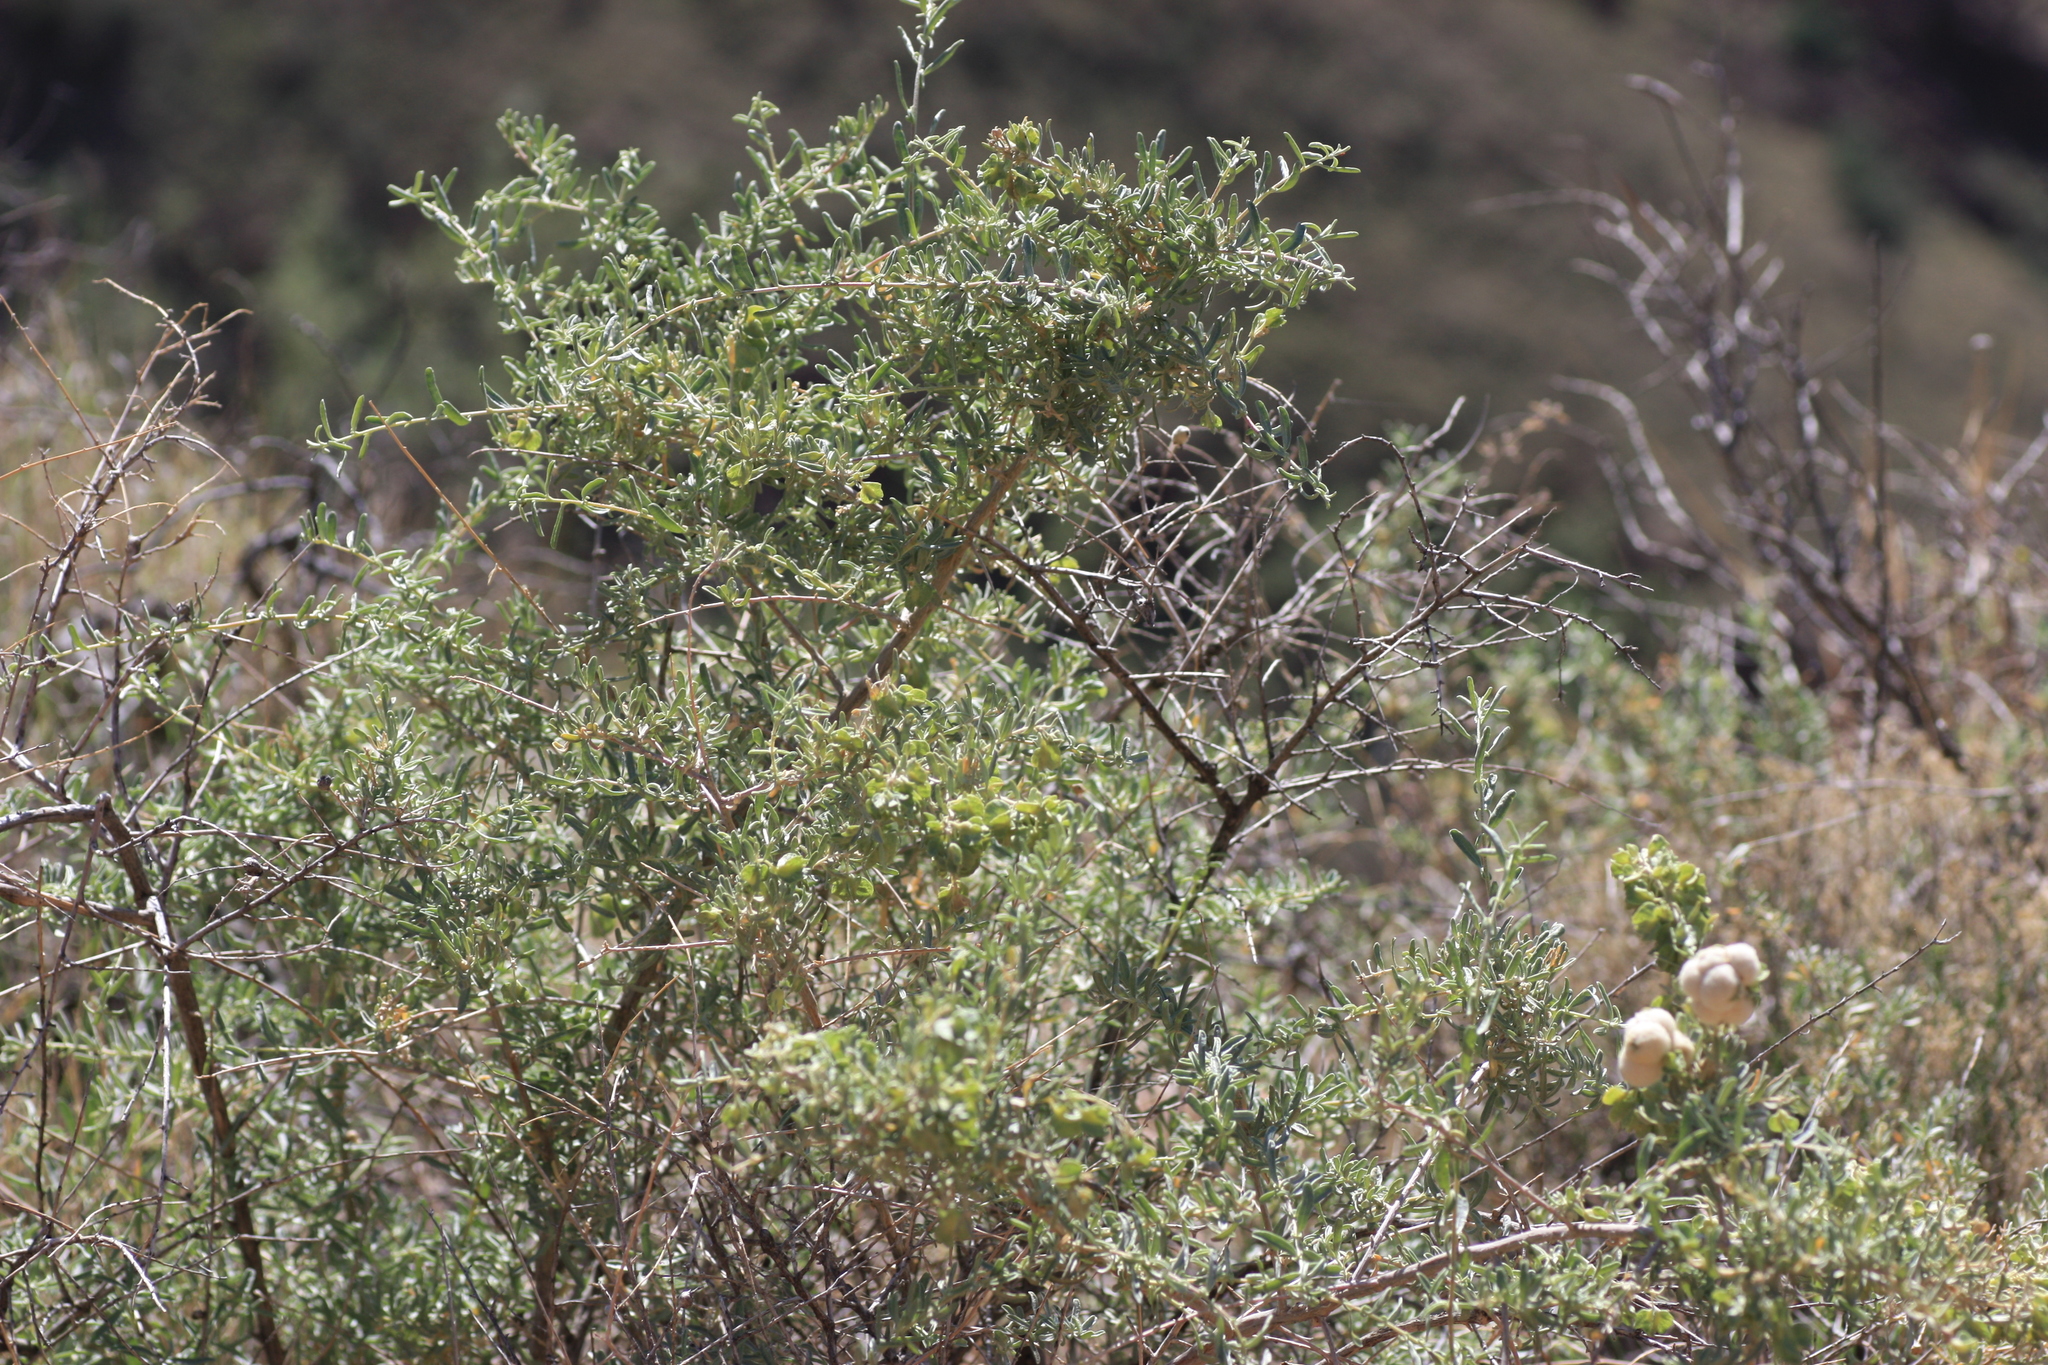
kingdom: Animalia
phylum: Arthropoda
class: Insecta
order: Diptera
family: Cecidomyiidae
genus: Asphondylia
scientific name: Asphondylia neomexicana
